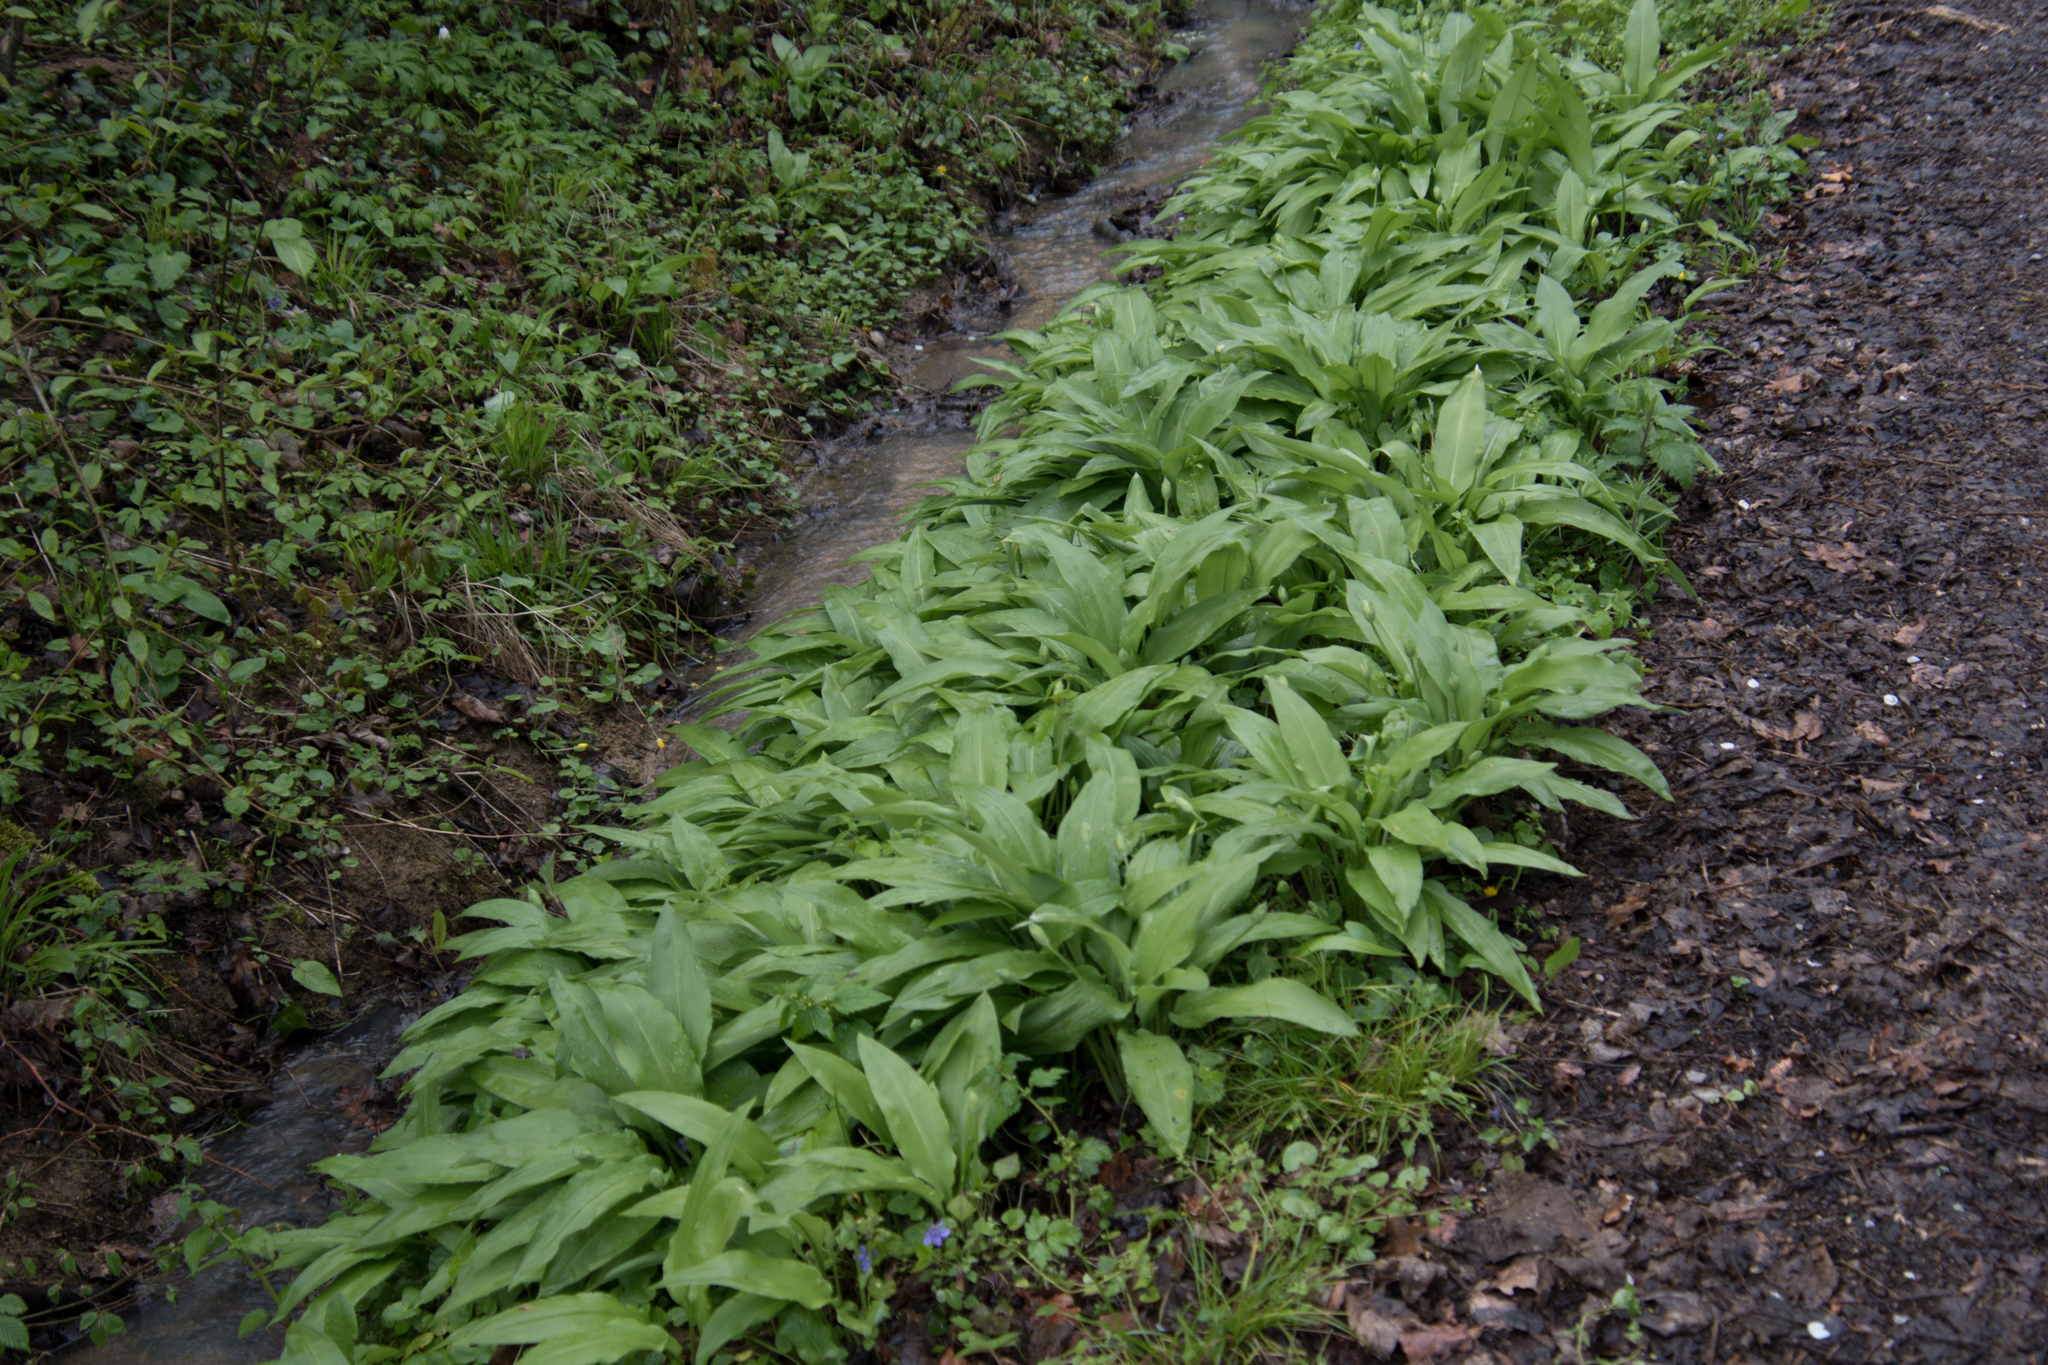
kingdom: Plantae
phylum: Tracheophyta
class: Liliopsida
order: Asparagales
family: Amaryllidaceae
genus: Allium
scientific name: Allium ursinum
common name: Ramsons
